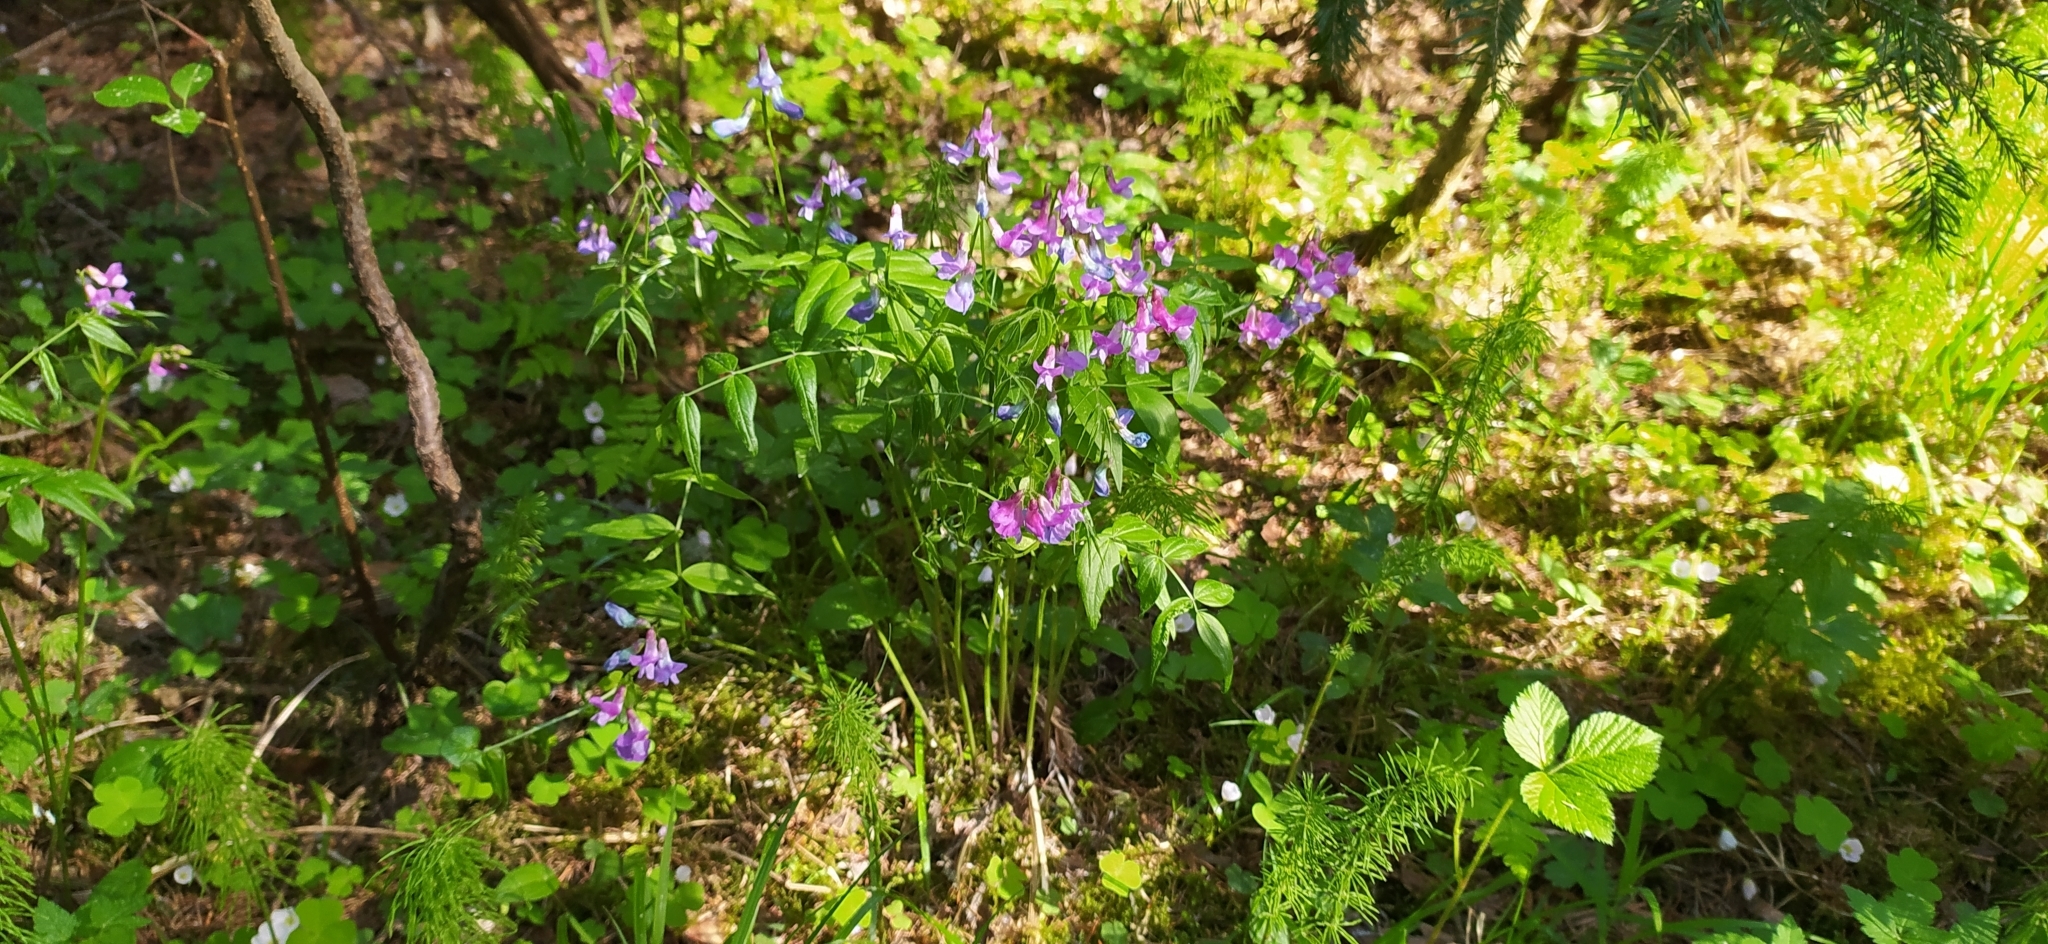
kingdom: Plantae
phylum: Tracheophyta
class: Magnoliopsida
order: Fabales
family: Fabaceae
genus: Lathyrus
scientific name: Lathyrus vernus
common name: Spring pea
